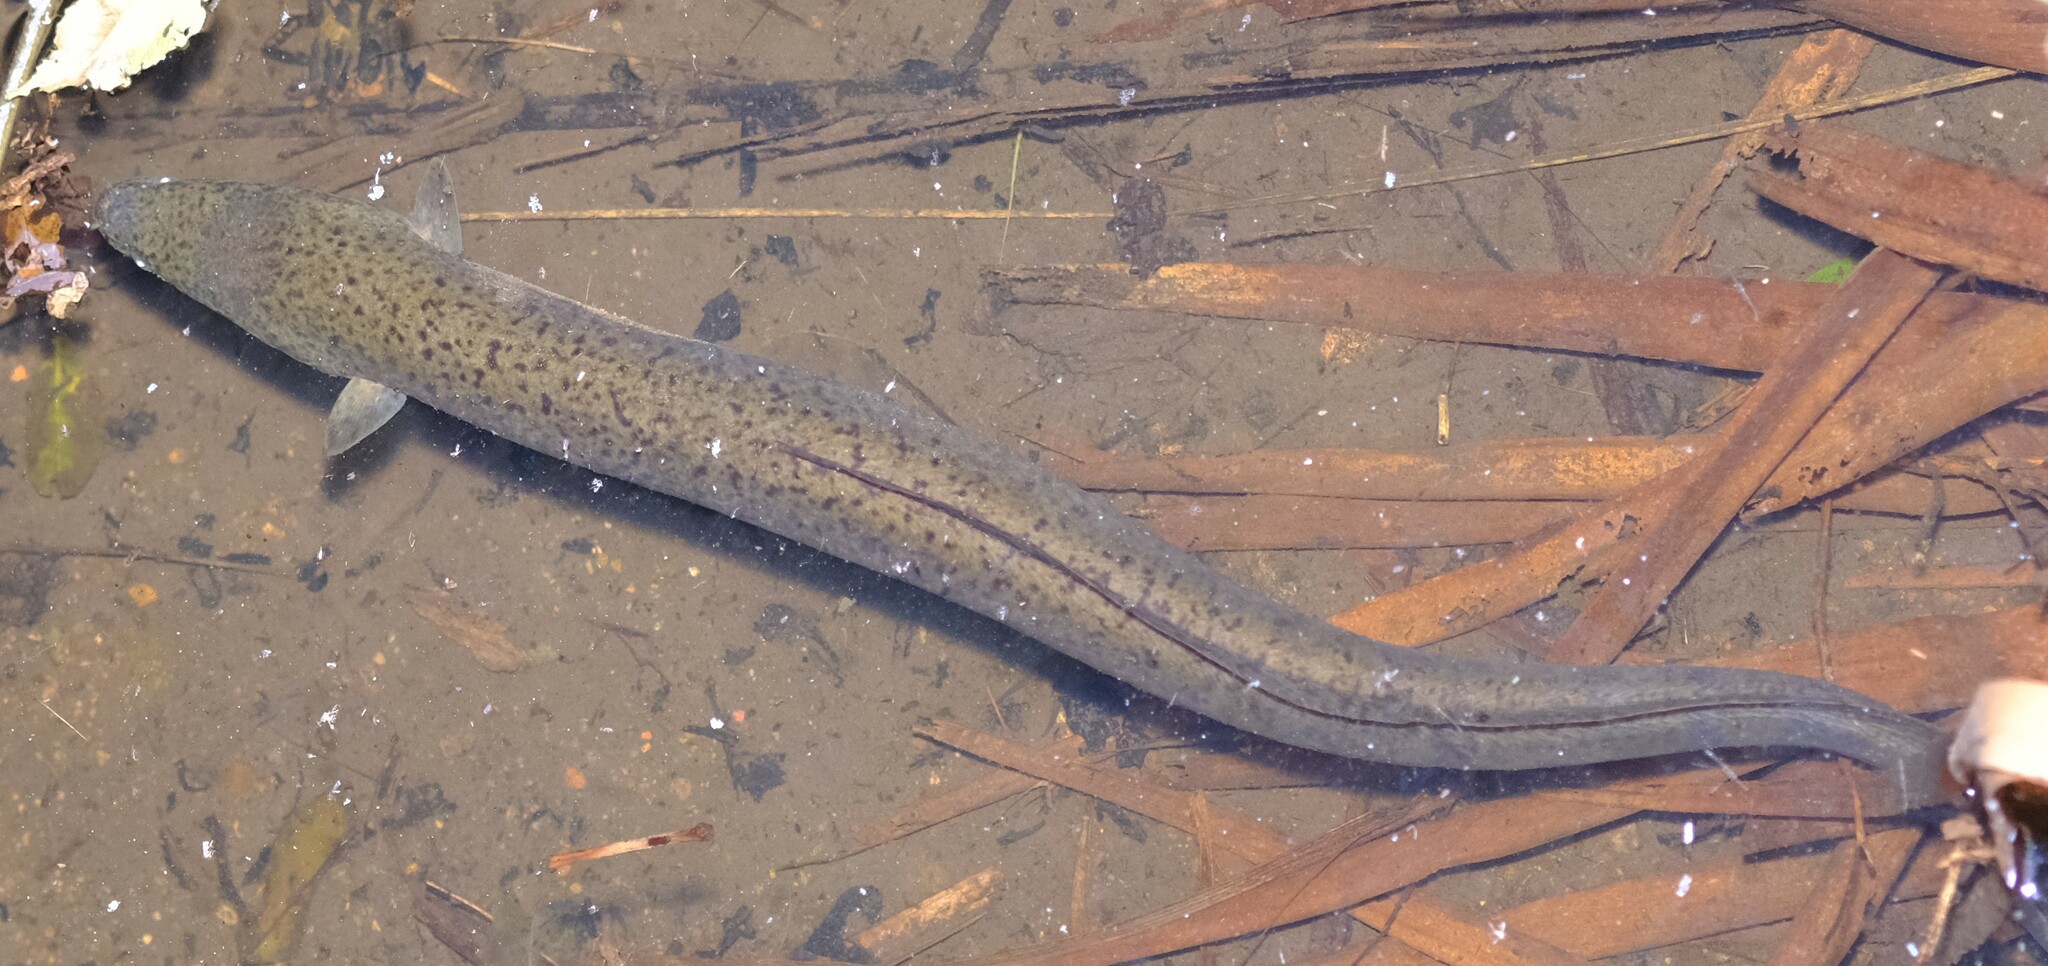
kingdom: Animalia
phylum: Chordata
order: Anguilliformes
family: Anguillidae
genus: Anguilla
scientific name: Anguilla reinhardtii
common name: Longfin eel
